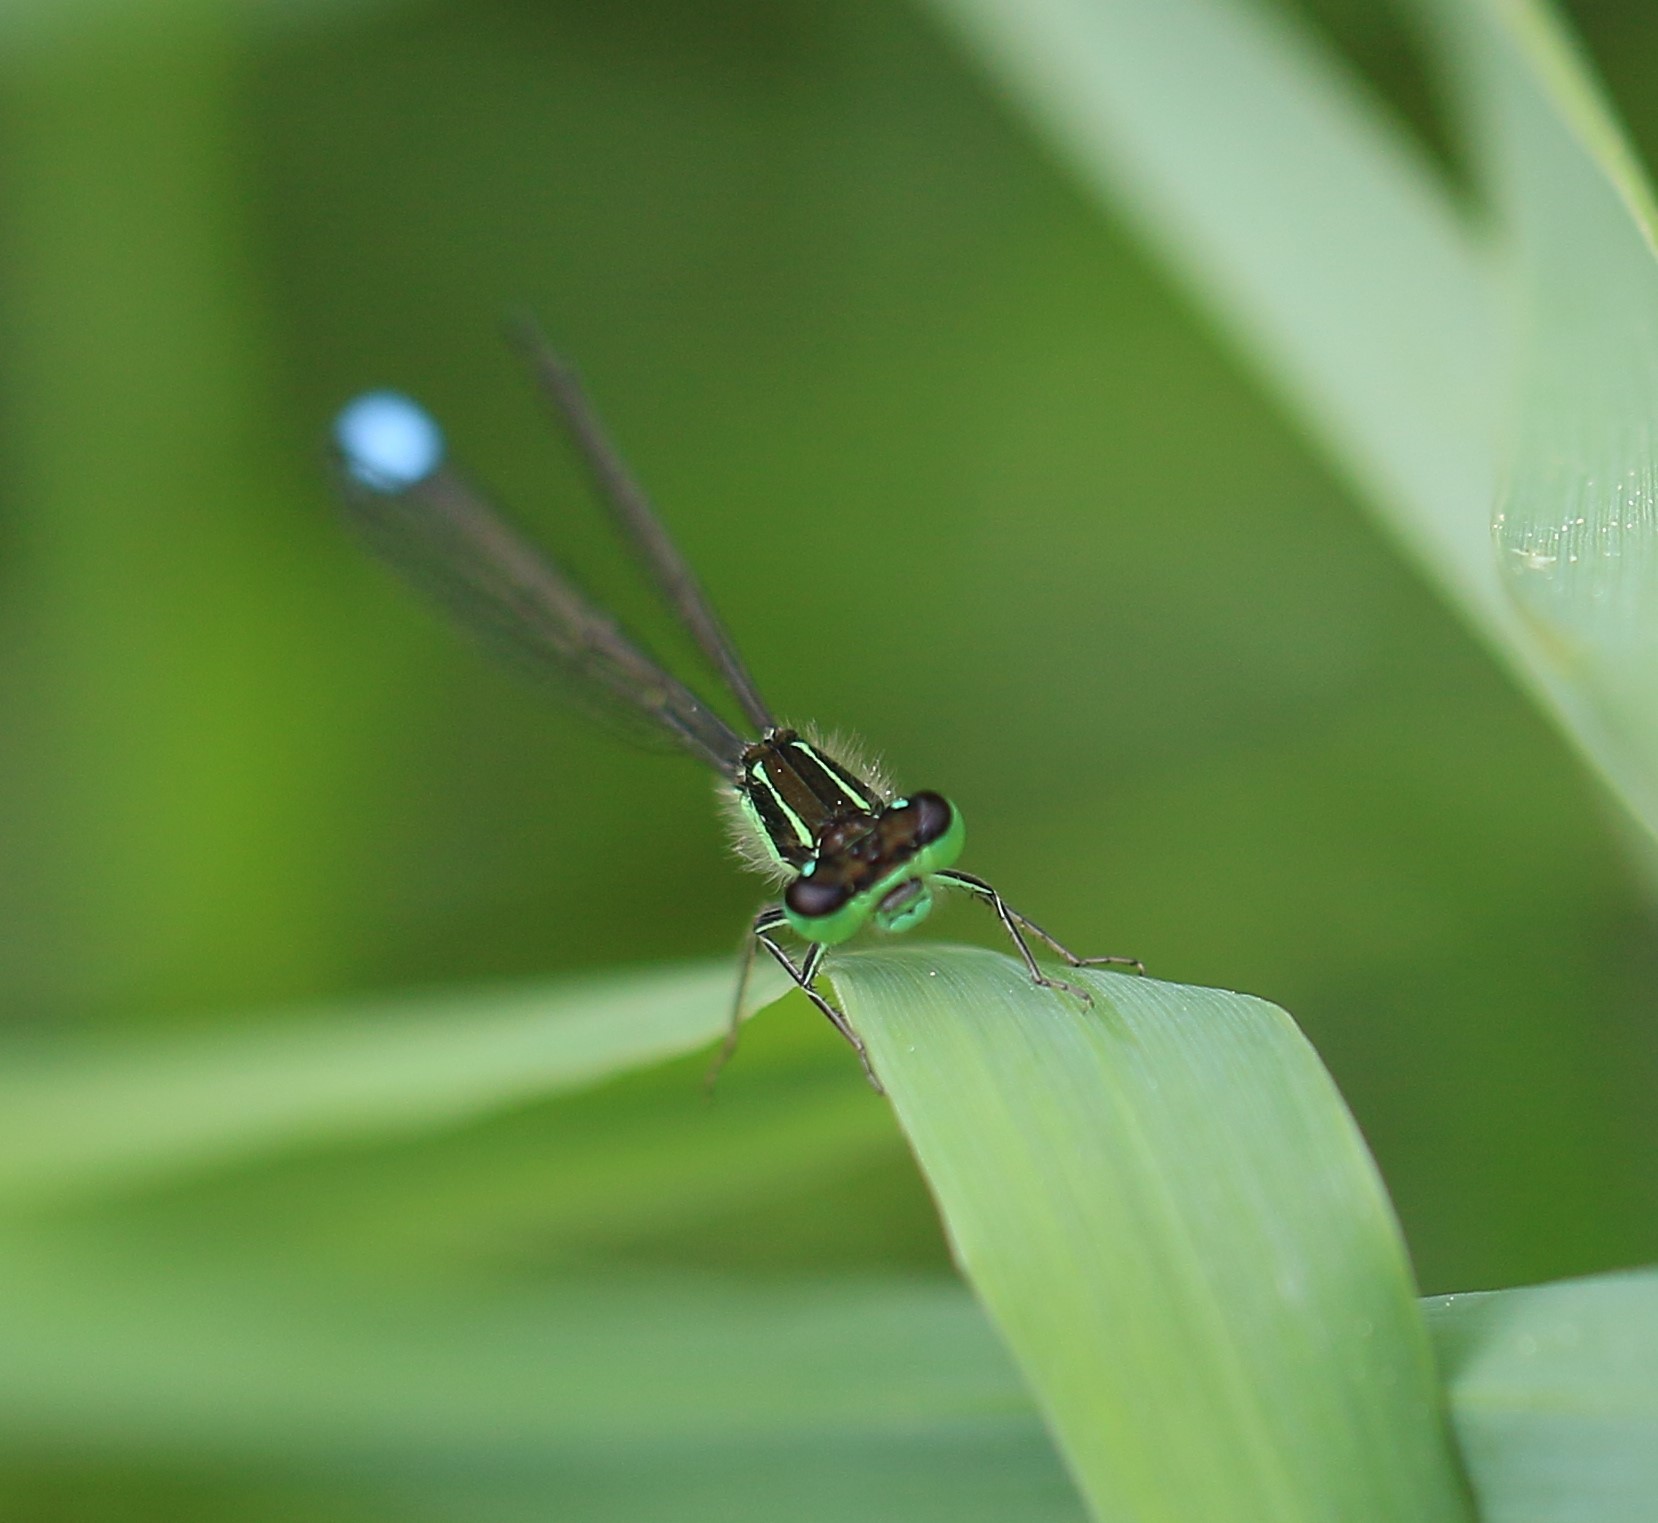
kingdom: Animalia
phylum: Arthropoda
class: Insecta
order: Odonata
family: Coenagrionidae
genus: Ischnura
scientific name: Ischnura verticalis
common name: Eastern forktail
